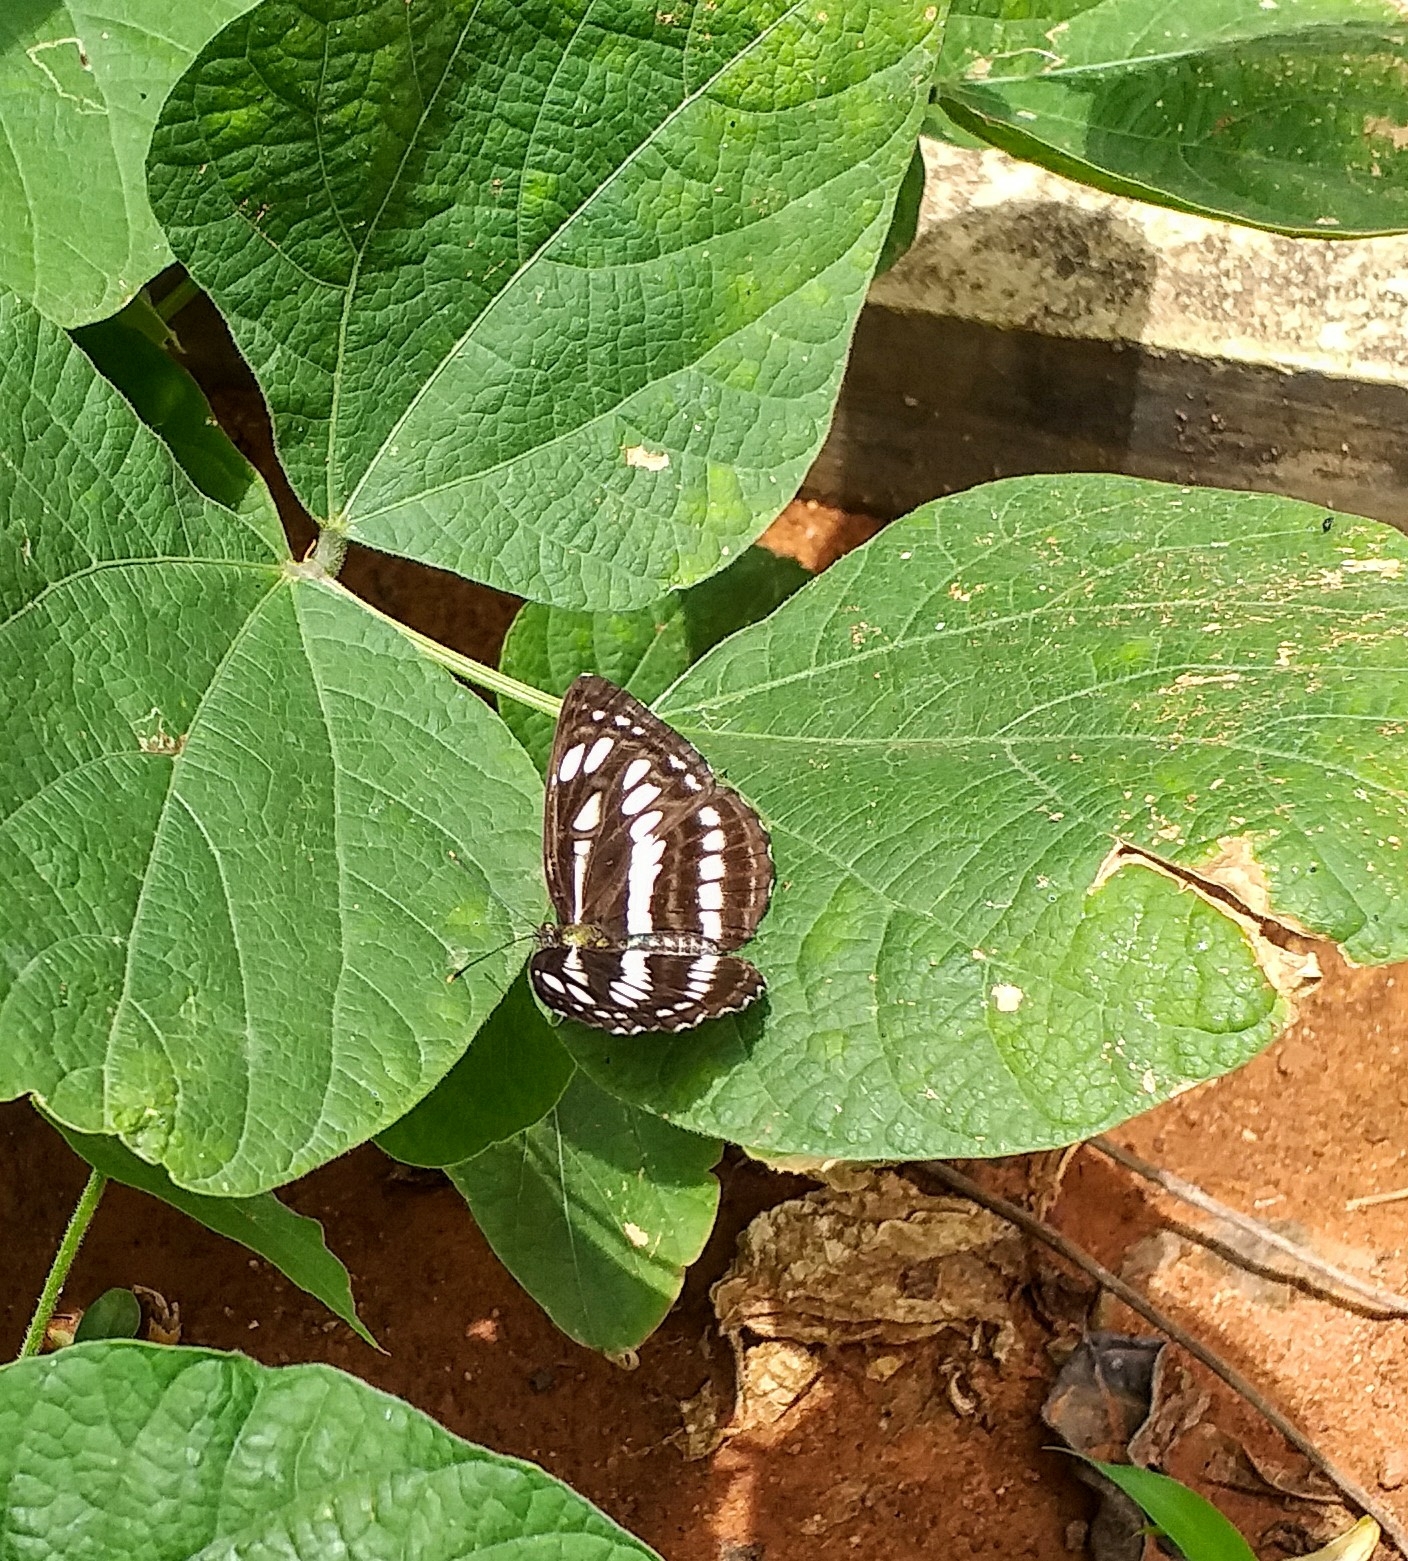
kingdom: Animalia
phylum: Arthropoda
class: Insecta
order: Lepidoptera
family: Nymphalidae
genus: Neptis
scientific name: Neptis hylas
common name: Common sailer
